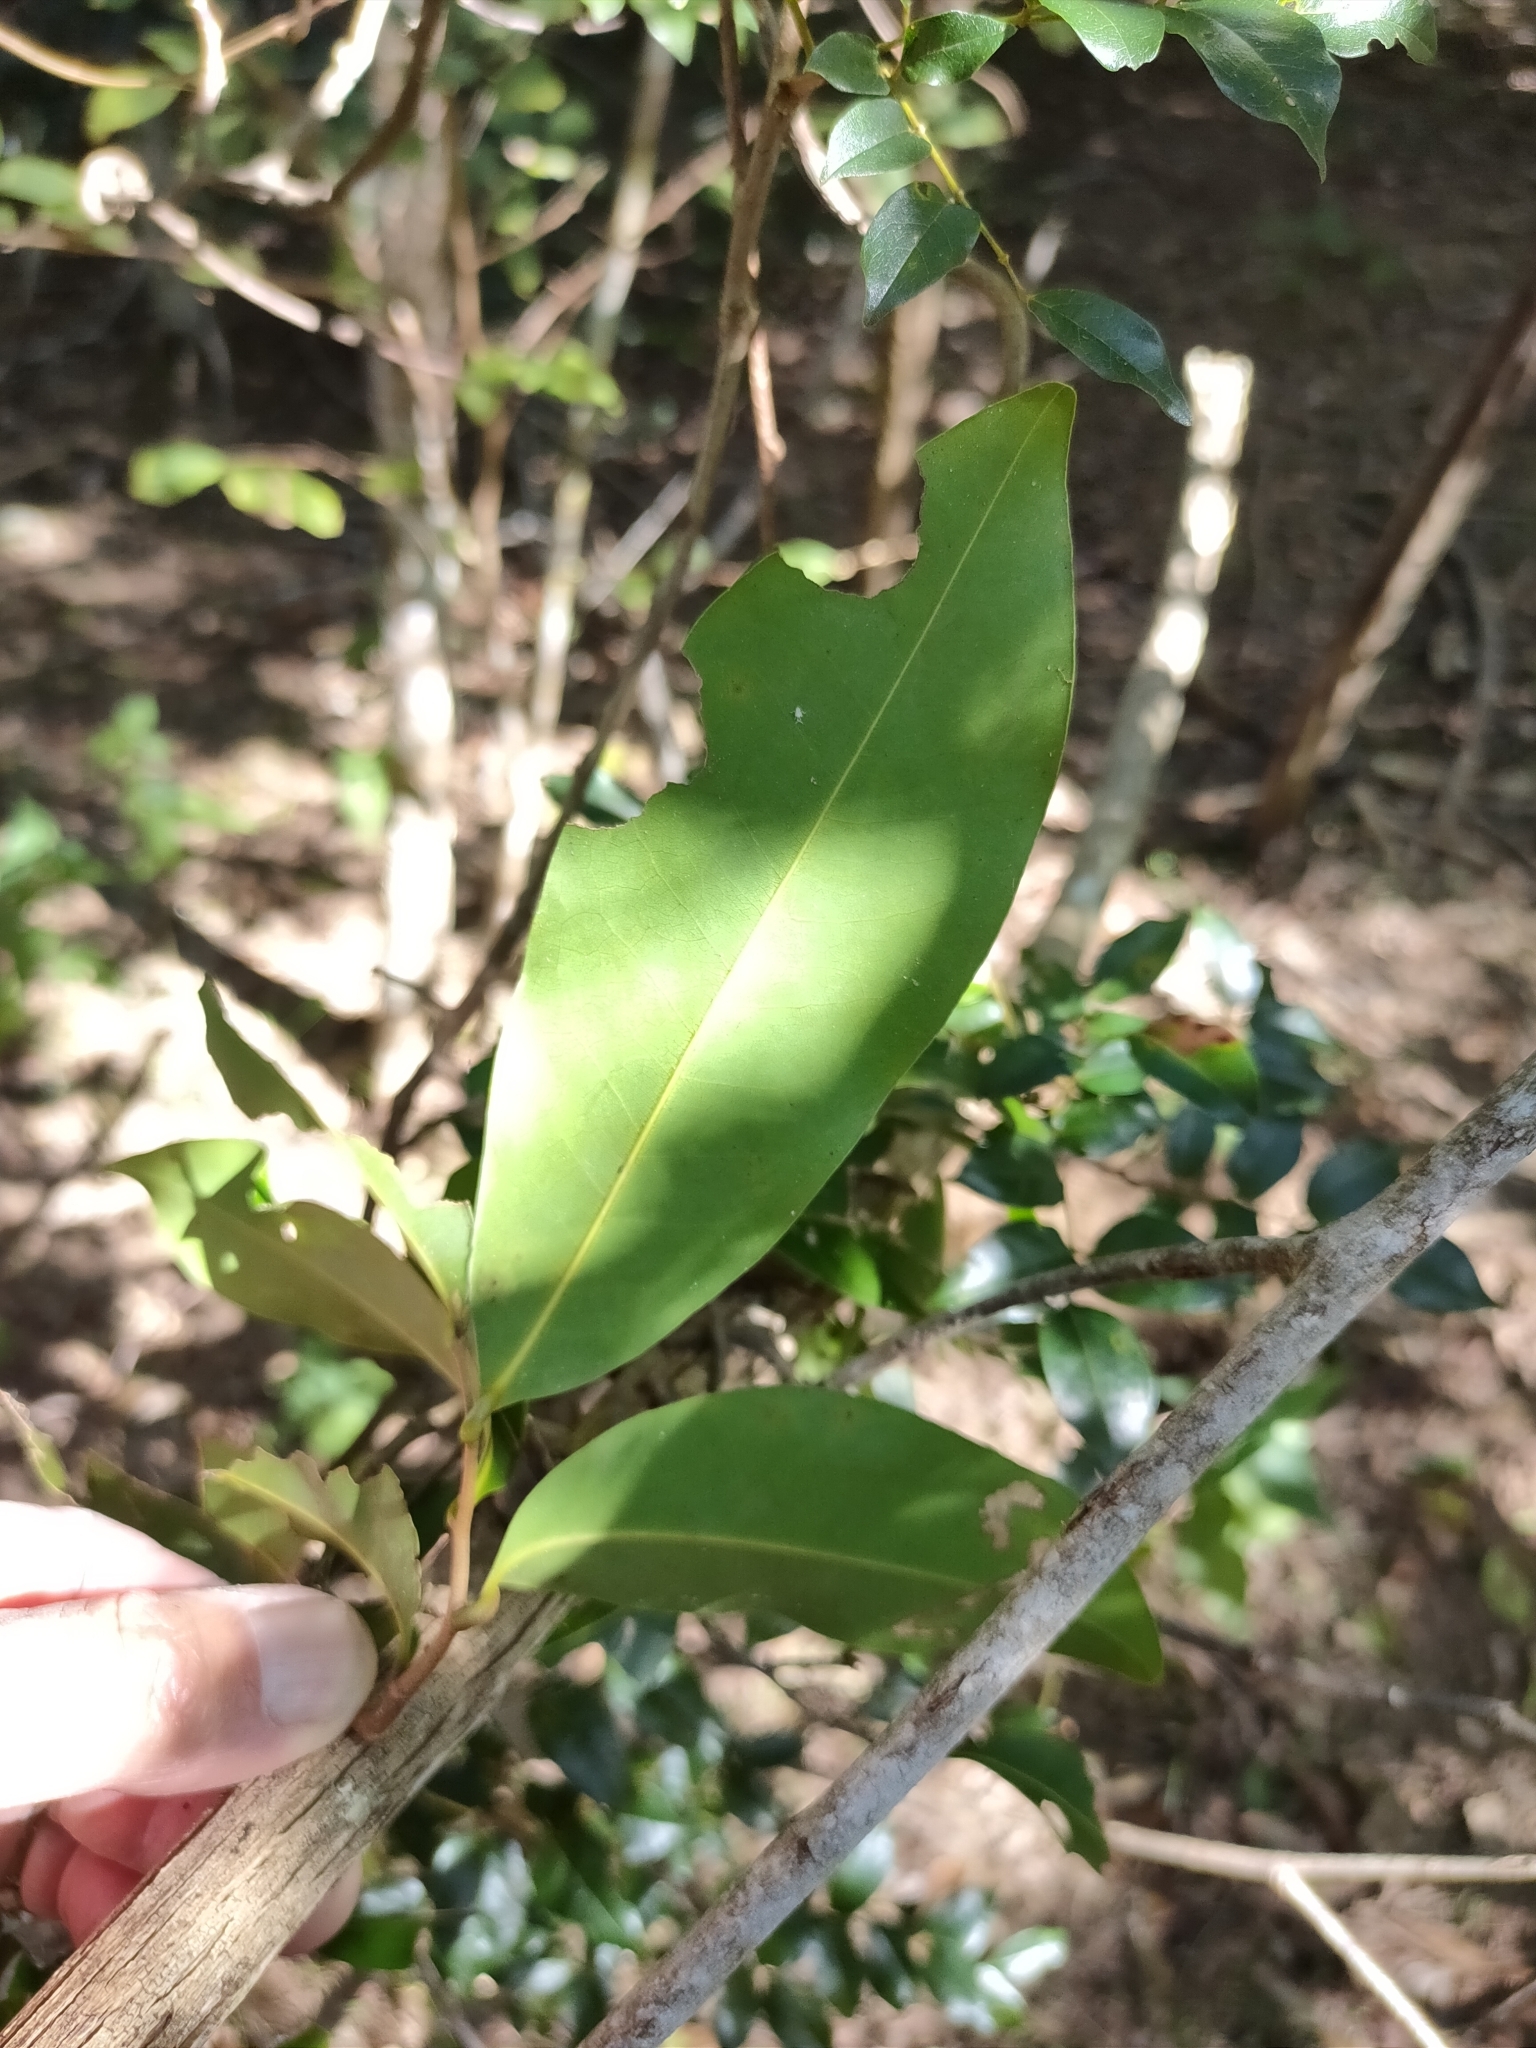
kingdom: Plantae
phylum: Tracheophyta
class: Magnoliopsida
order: Magnoliales
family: Annonaceae
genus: Uvaria
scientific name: Uvaria leichhardtii
